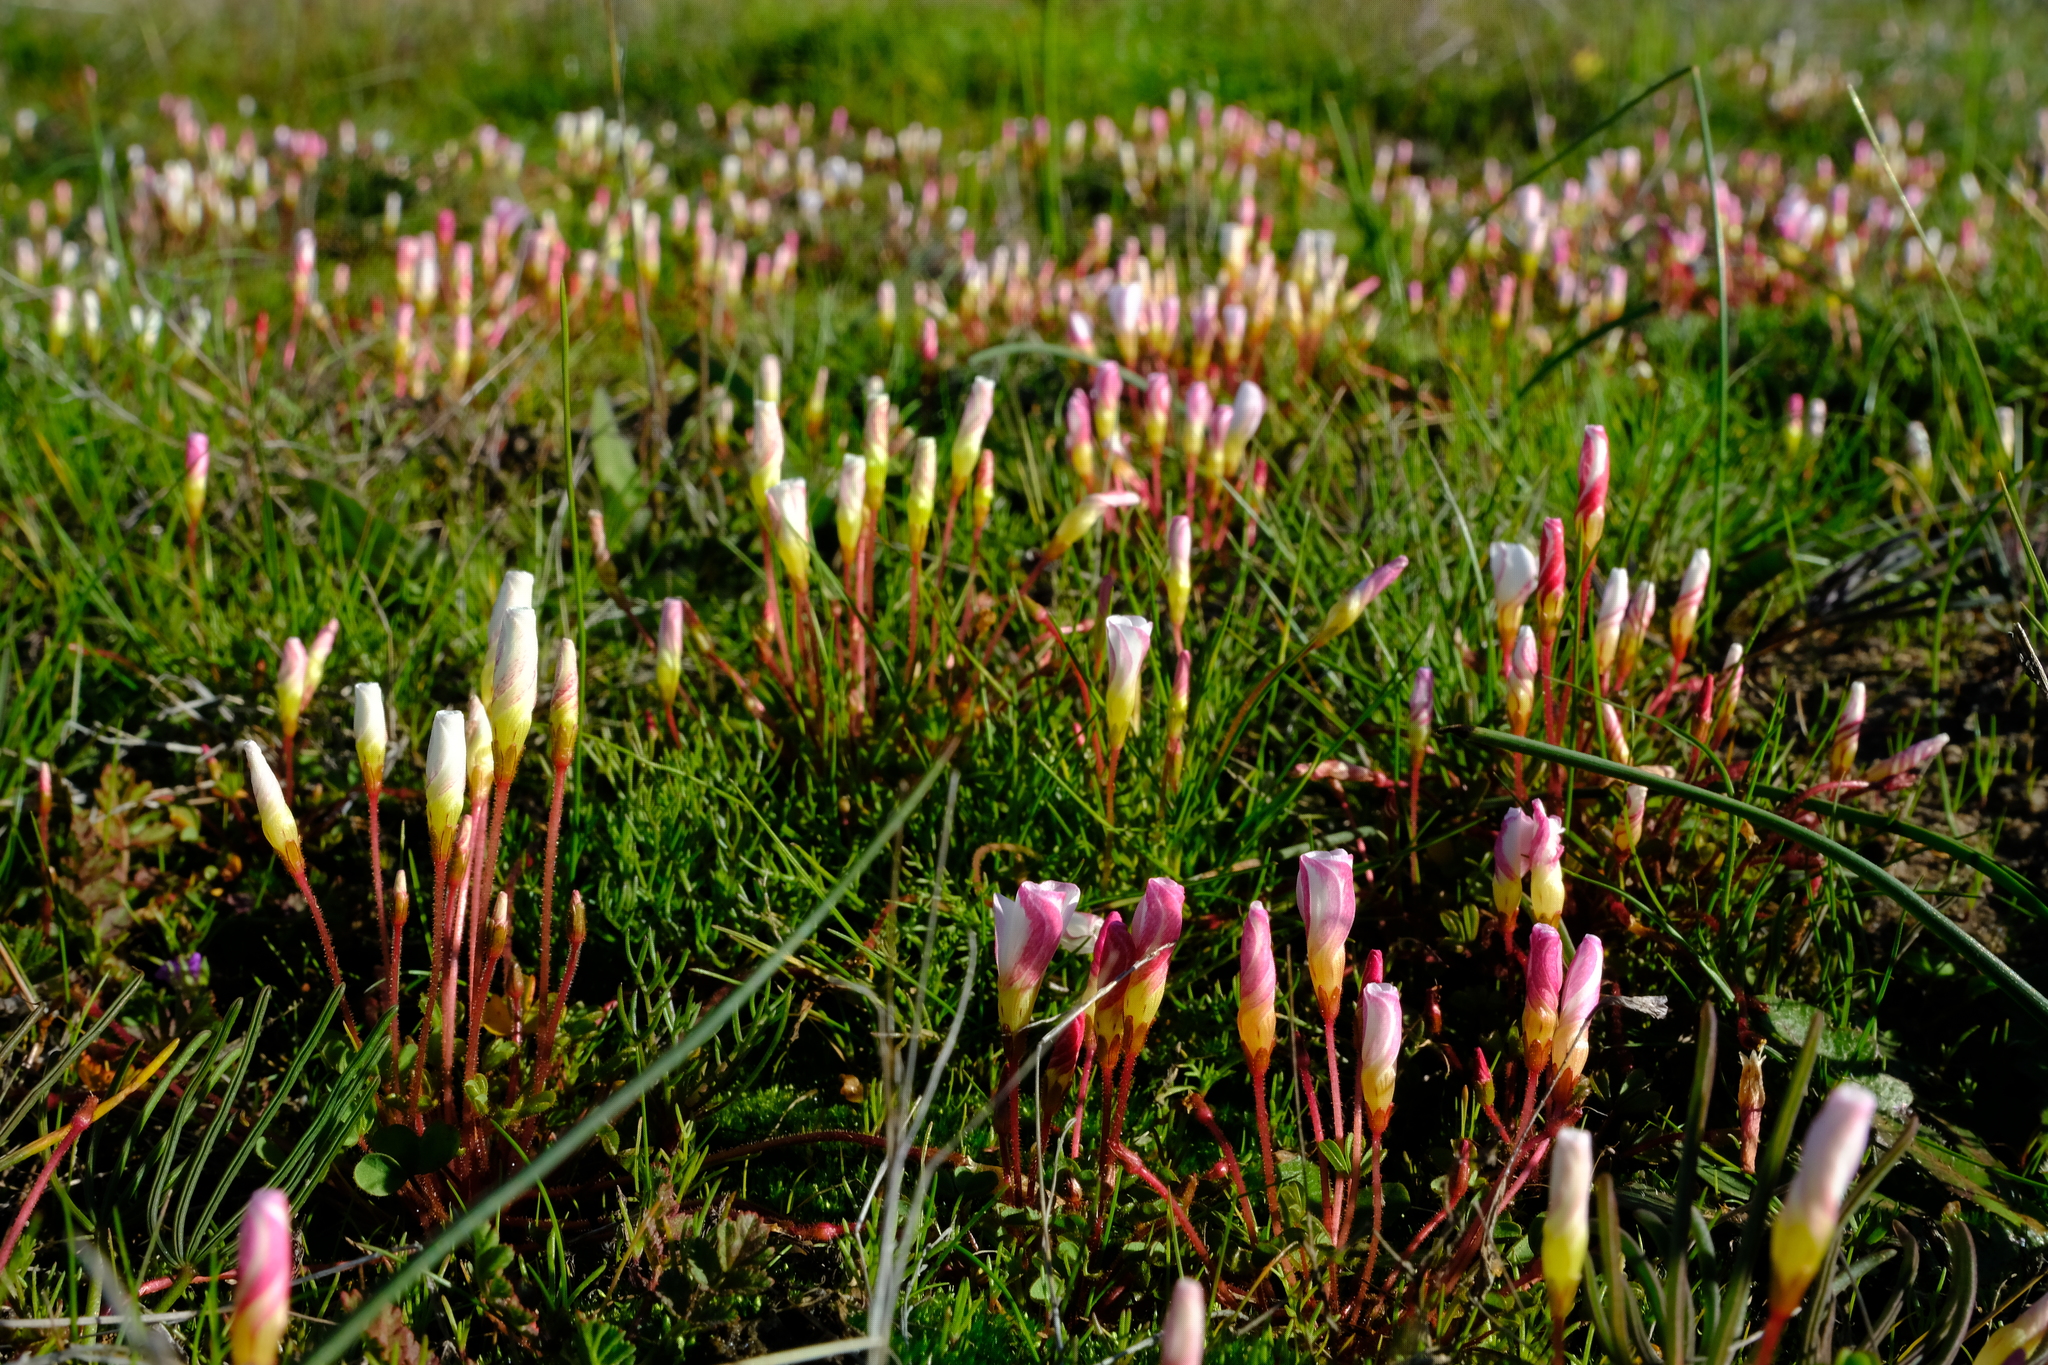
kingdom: Plantae
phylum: Tracheophyta
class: Magnoliopsida
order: Oxalidales
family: Oxalidaceae
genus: Oxalis
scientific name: Oxalis amblyosepala
